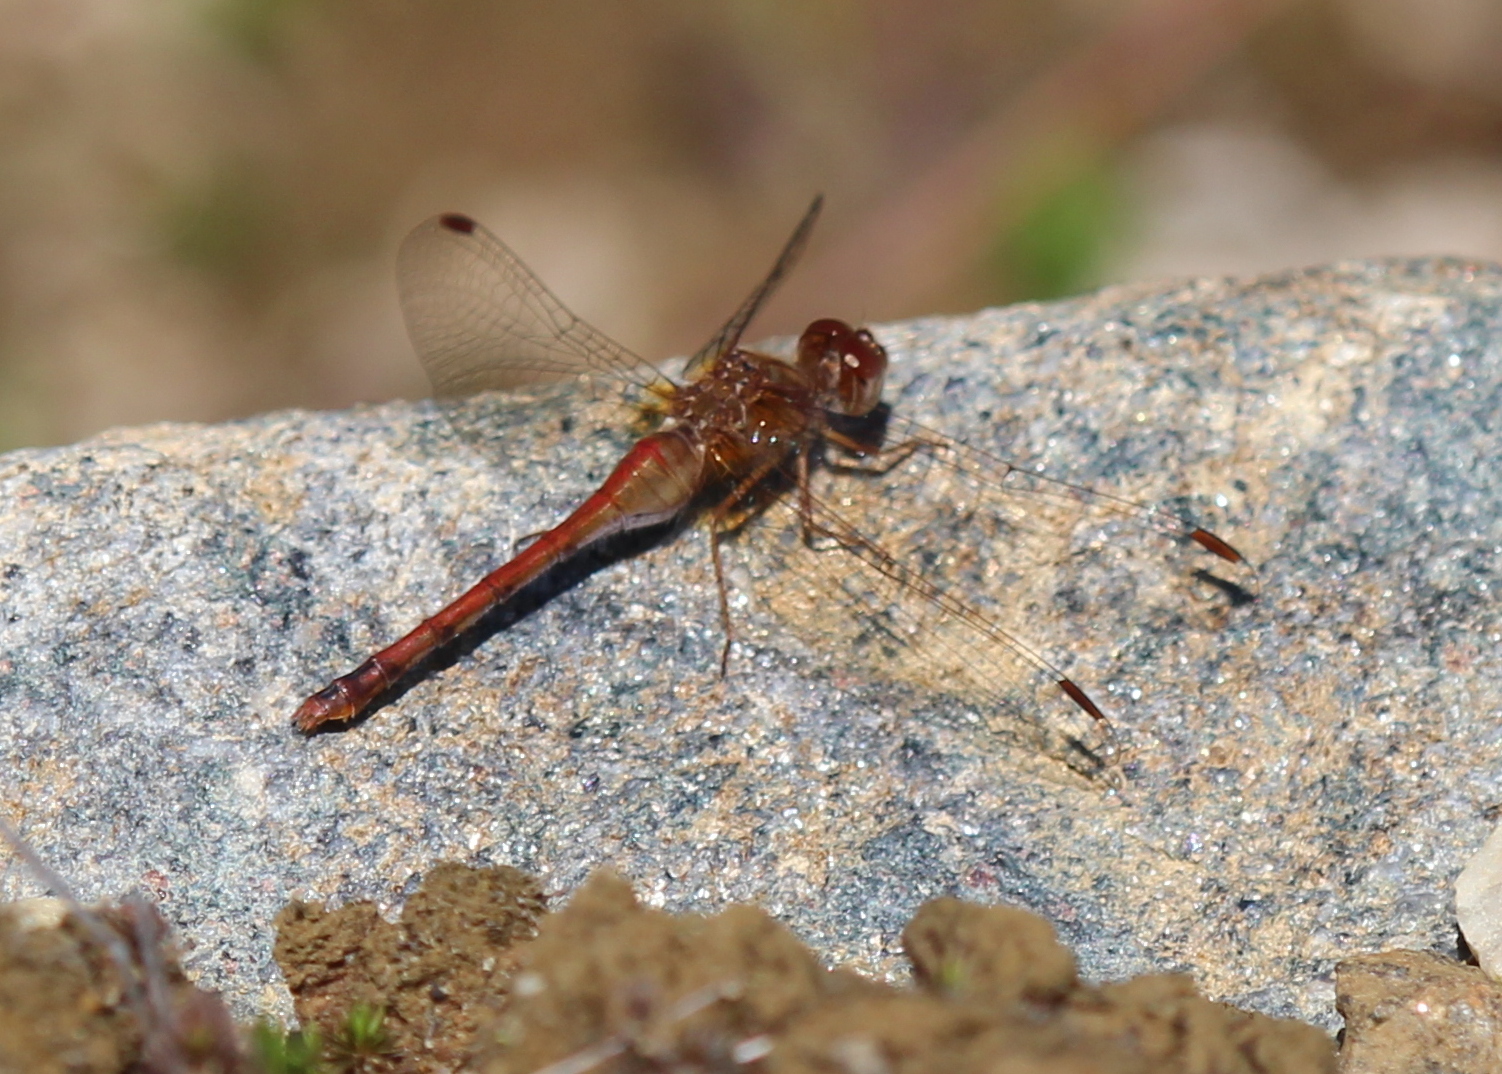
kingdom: Animalia
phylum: Arthropoda
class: Insecta
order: Odonata
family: Libellulidae
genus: Sympetrum
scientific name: Sympetrum vicinum
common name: Autumn meadowhawk
